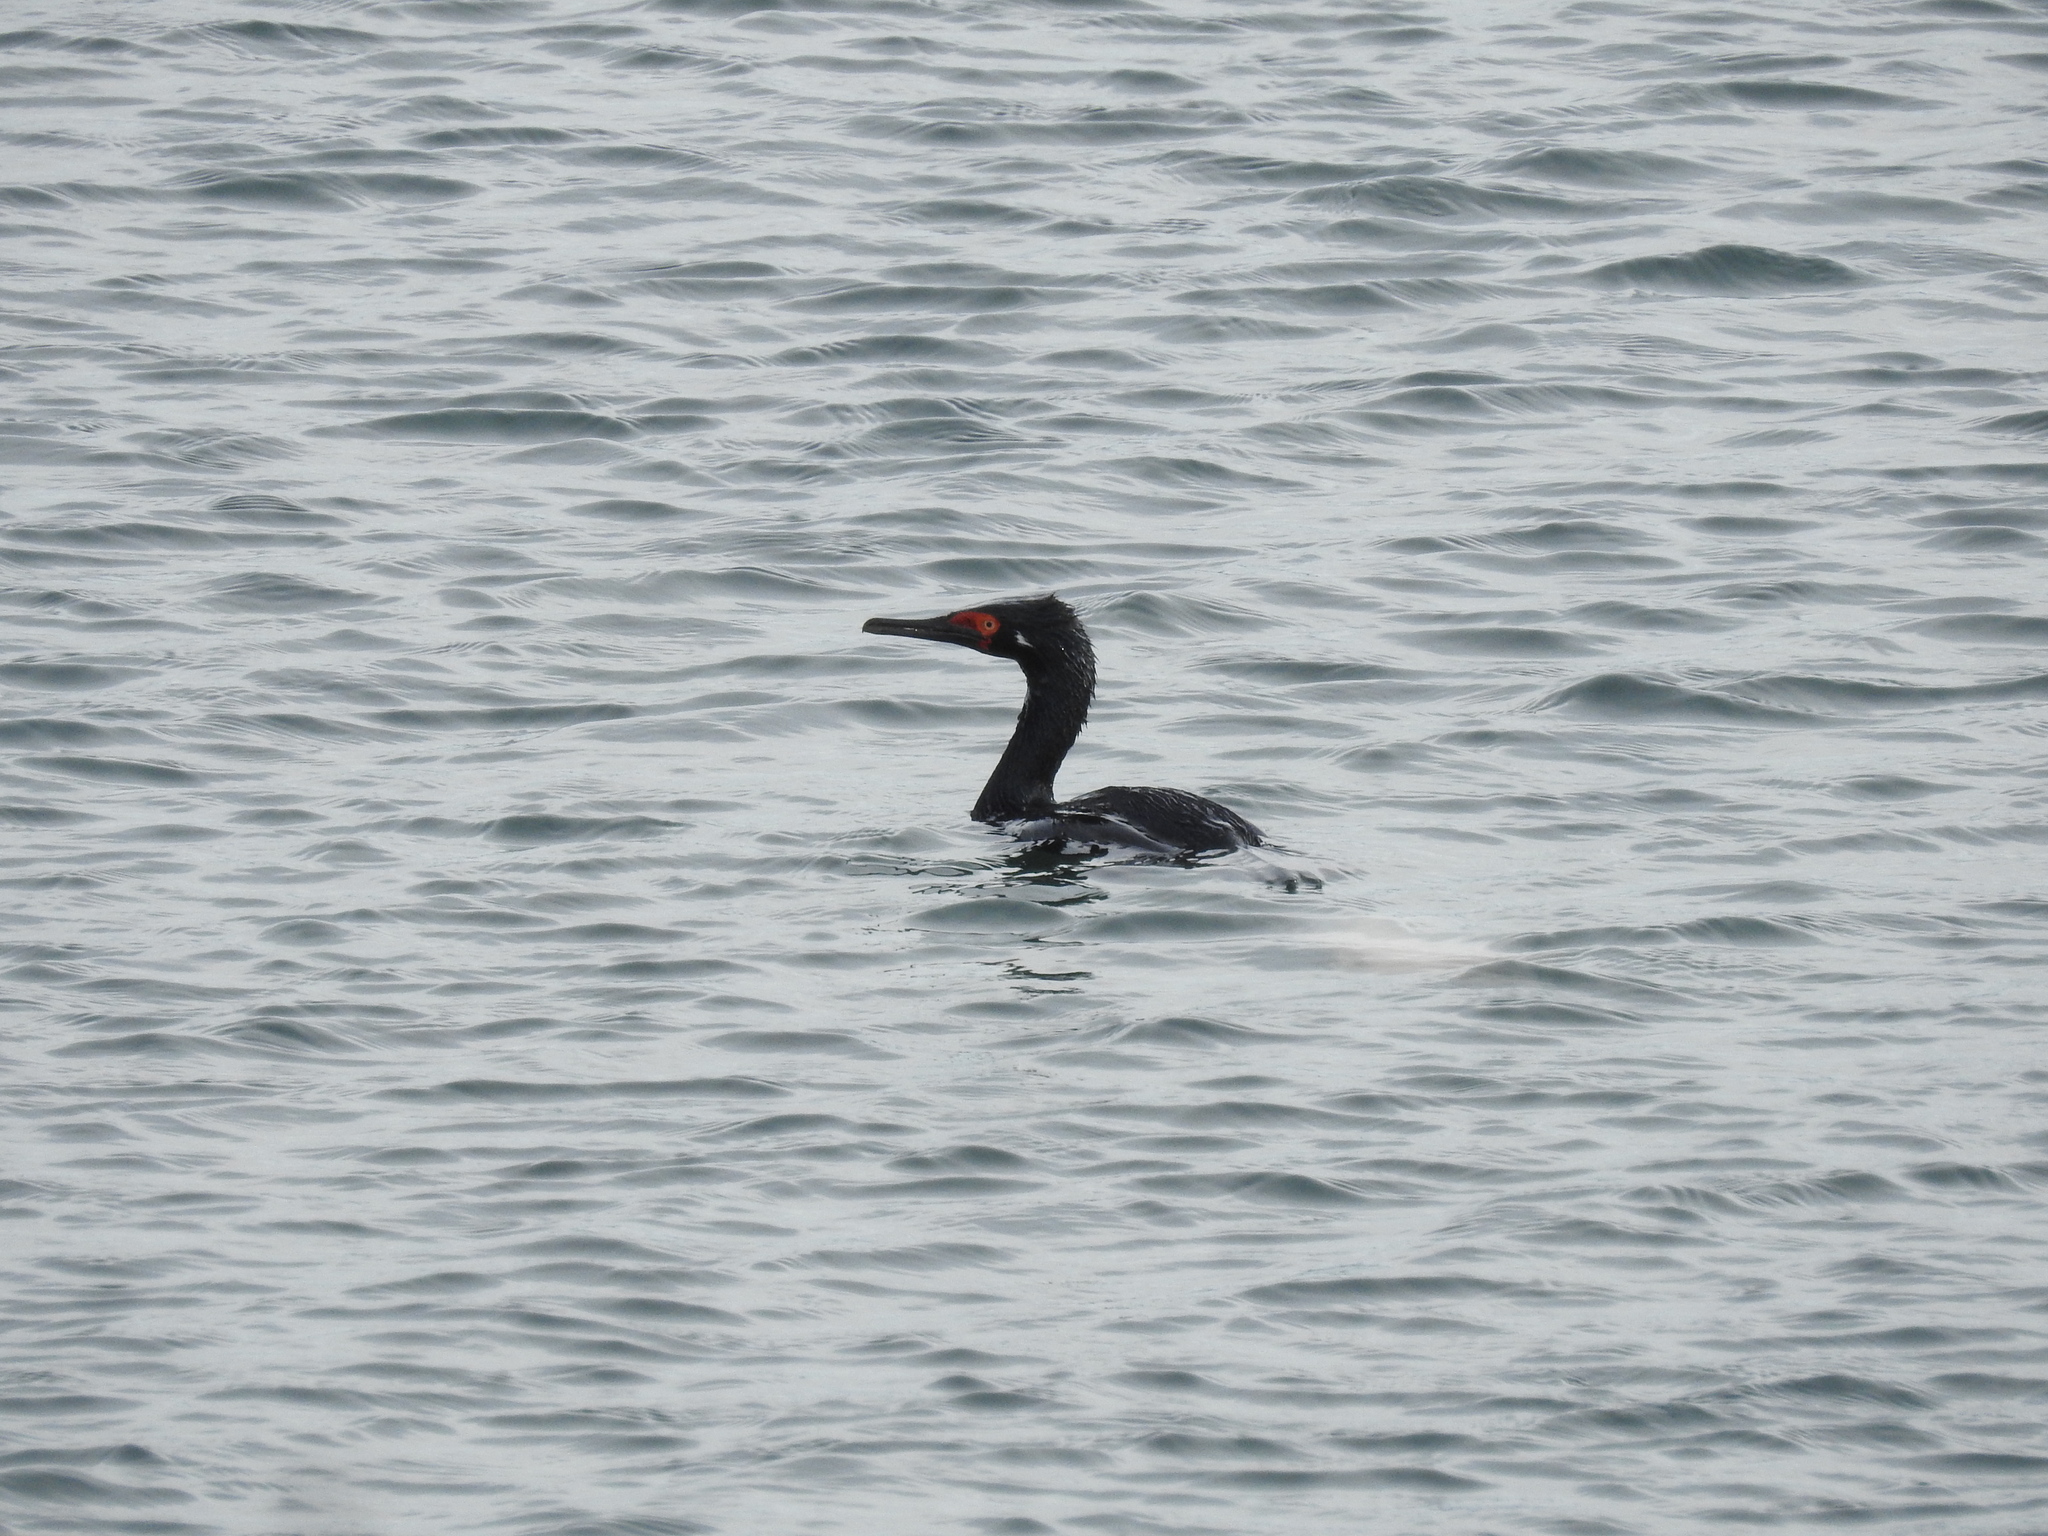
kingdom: Animalia
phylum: Chordata
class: Aves
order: Suliformes
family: Phalacrocoracidae
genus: Phalacrocorax
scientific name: Phalacrocorax magellanicus
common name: Rock shag
